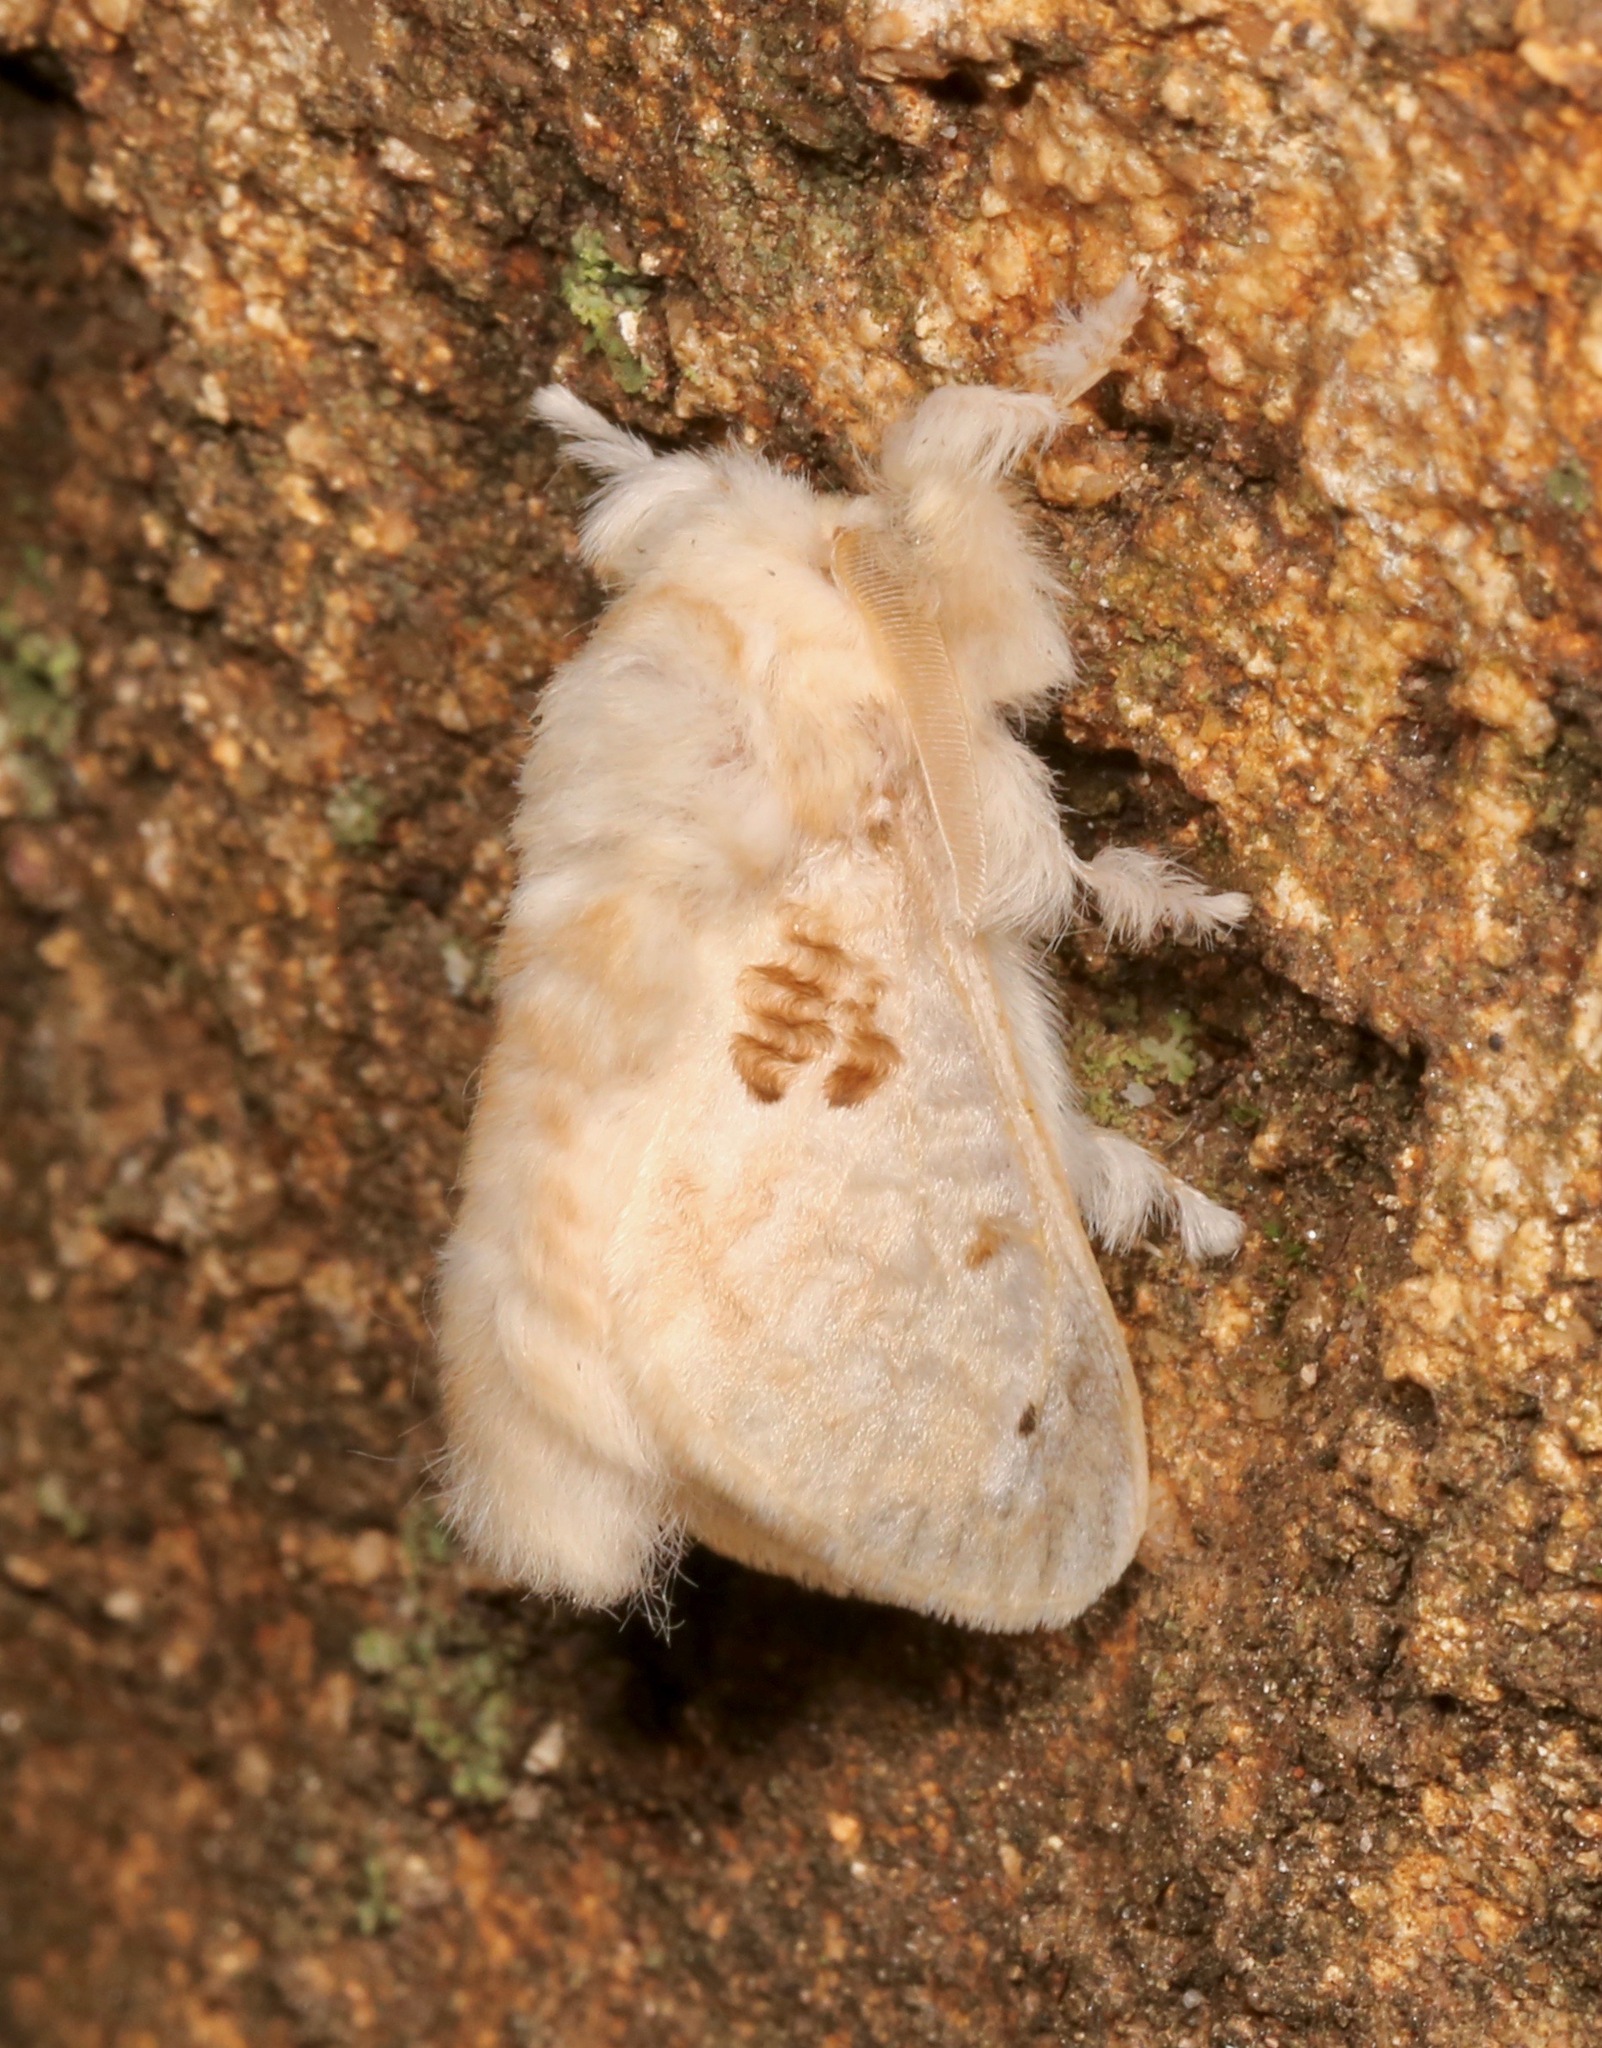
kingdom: Animalia
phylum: Arthropoda
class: Insecta
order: Lepidoptera
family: Megalopygidae
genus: Megalopyge
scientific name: Megalopyge lapena
